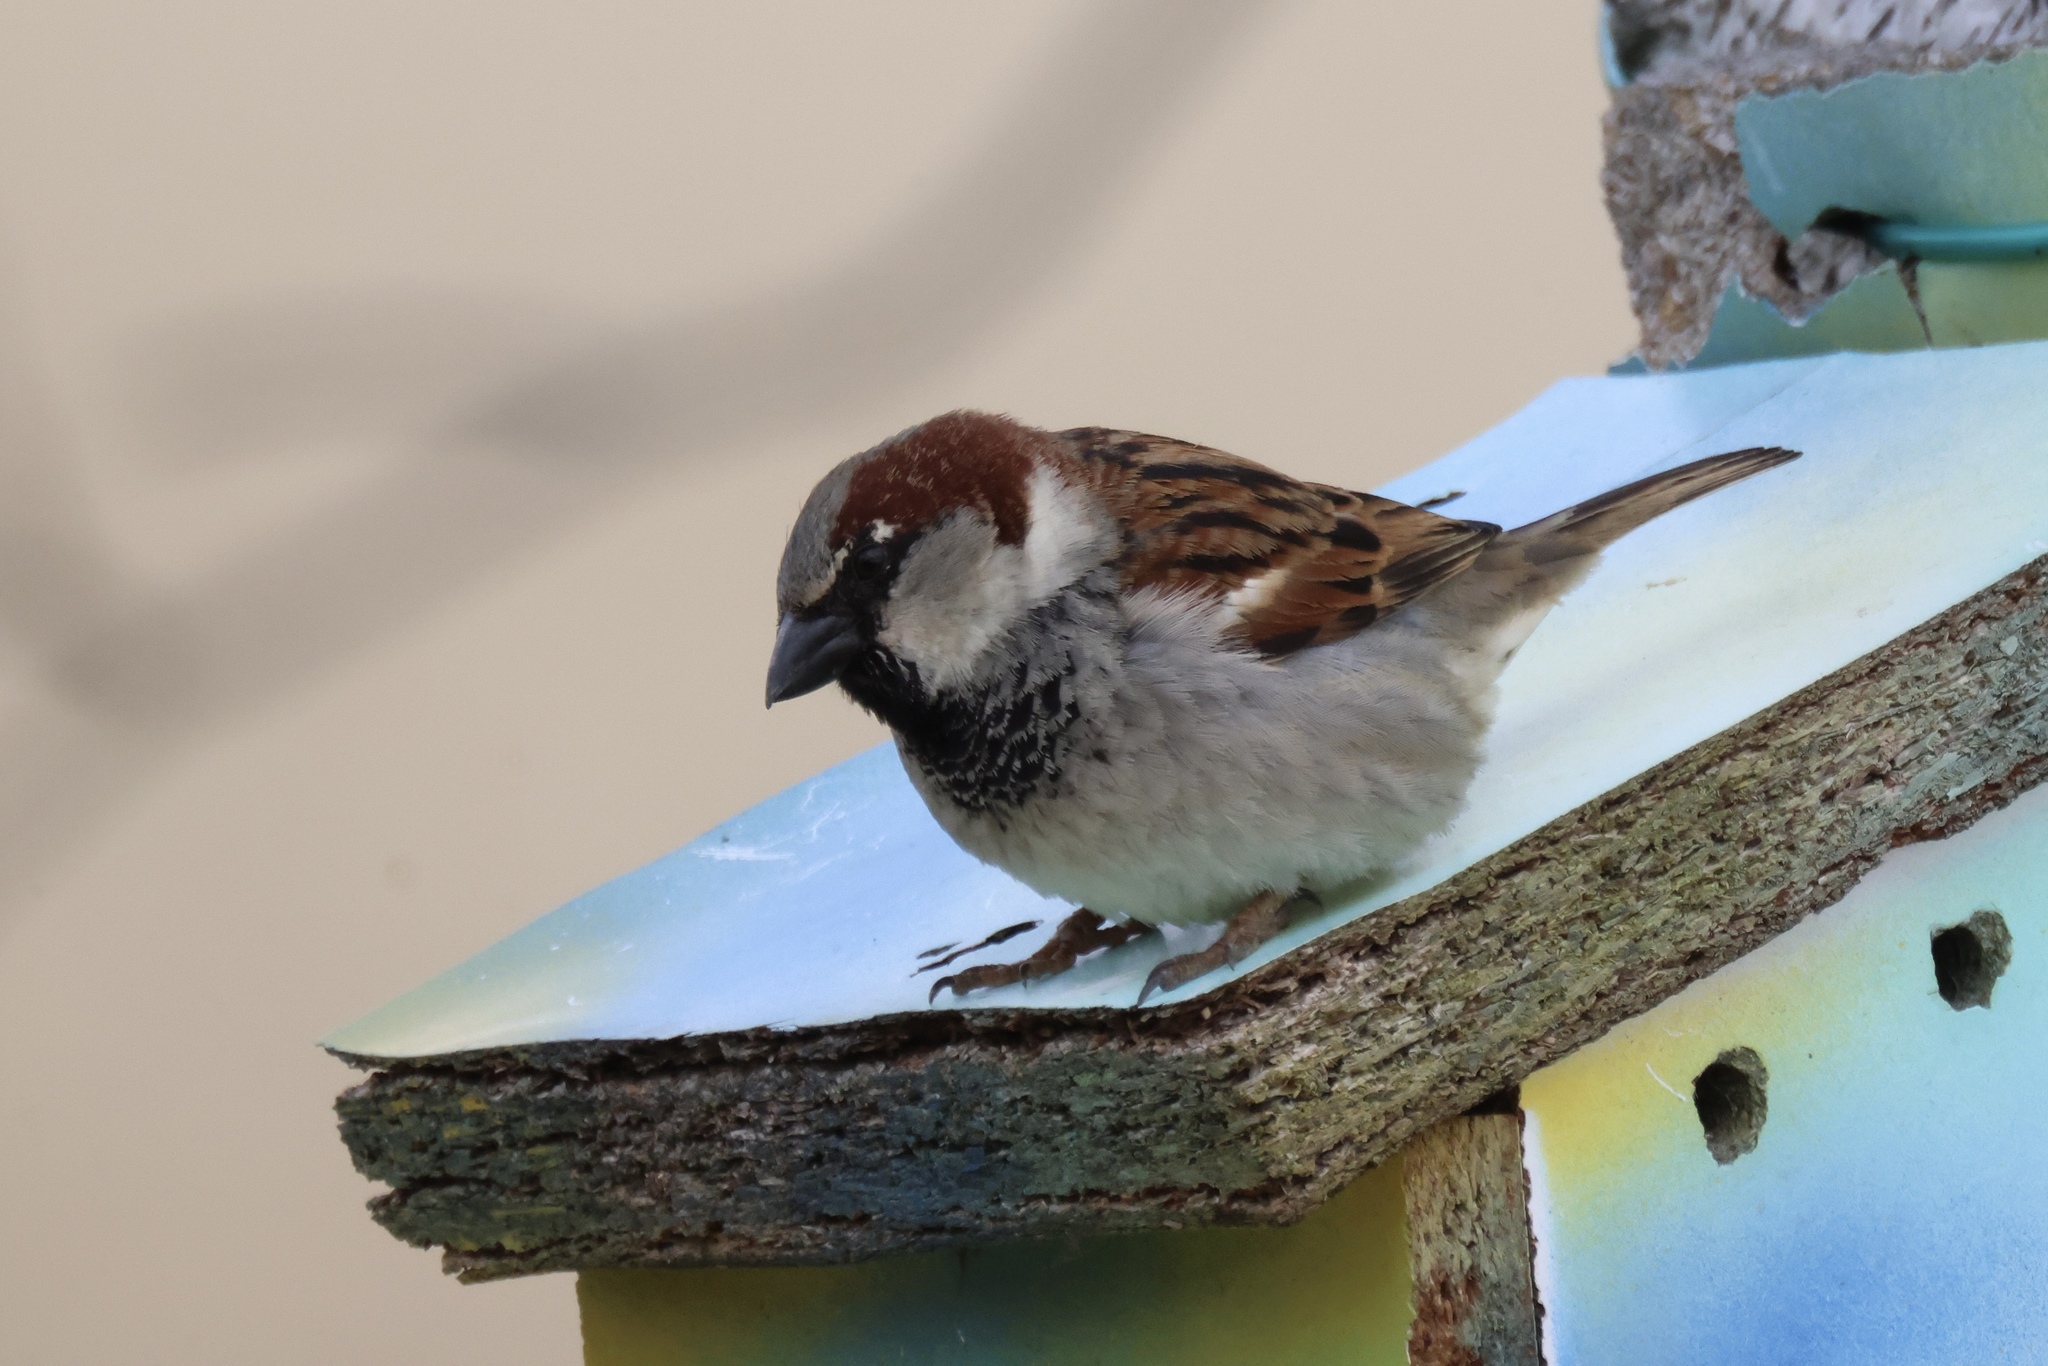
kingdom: Animalia
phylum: Chordata
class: Aves
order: Passeriformes
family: Passeridae
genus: Passer
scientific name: Passer domesticus
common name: House sparrow
